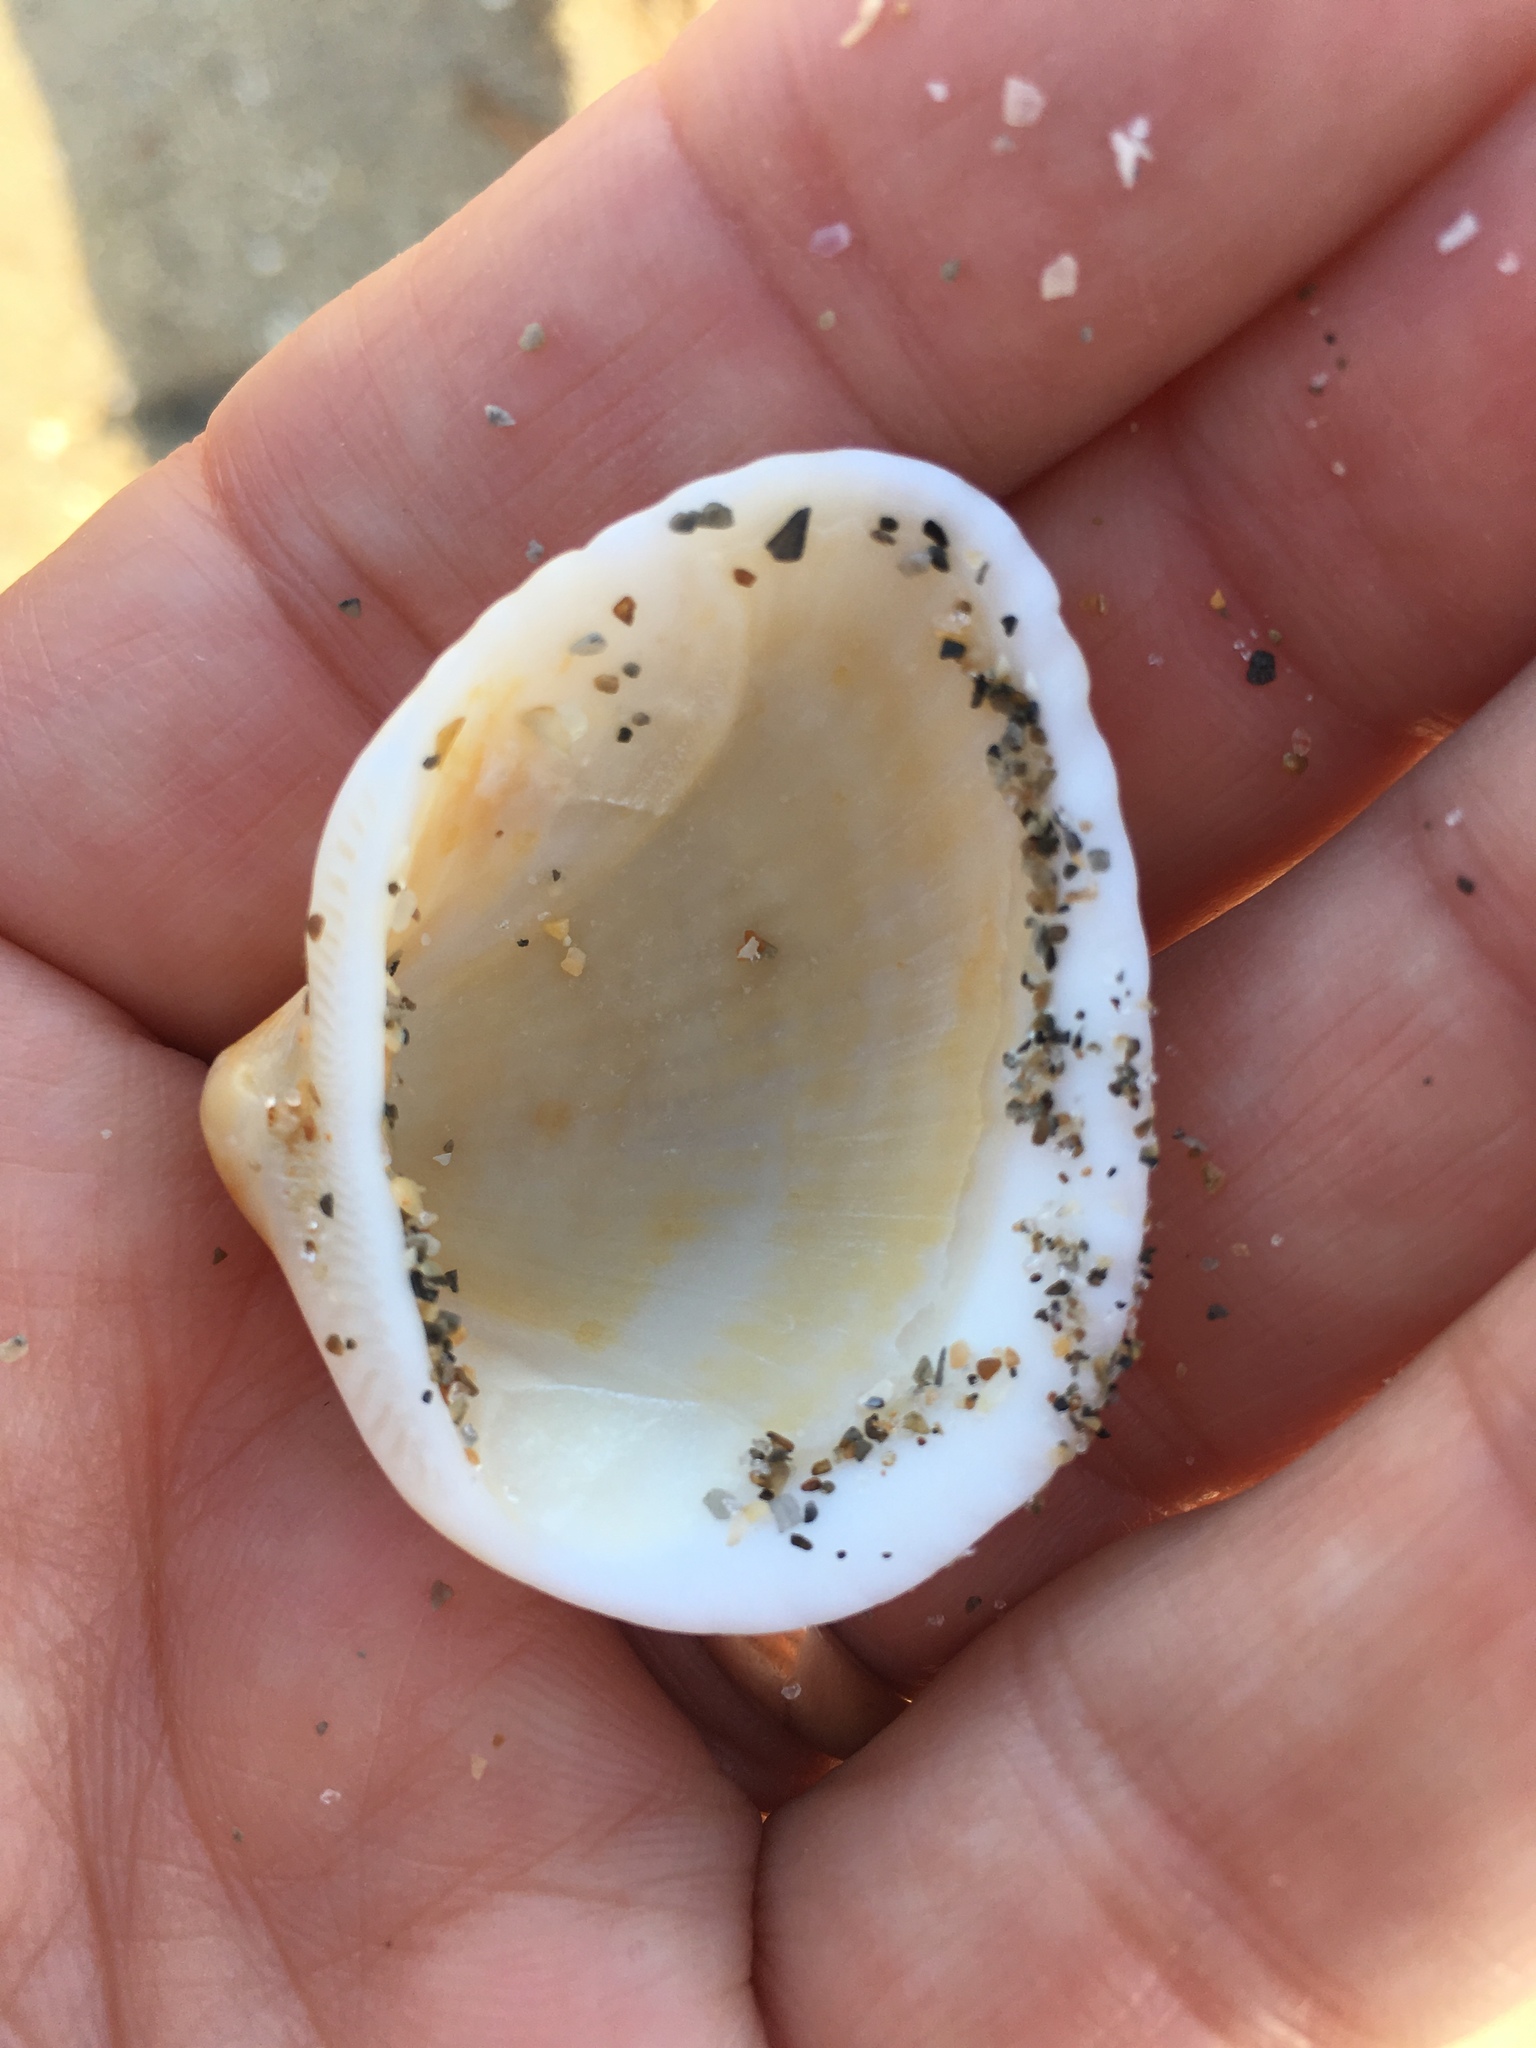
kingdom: Animalia
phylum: Mollusca
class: Bivalvia
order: Arcida
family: Noetiidae
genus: Noetia
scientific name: Noetia ponderosa
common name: Ponderous ark
